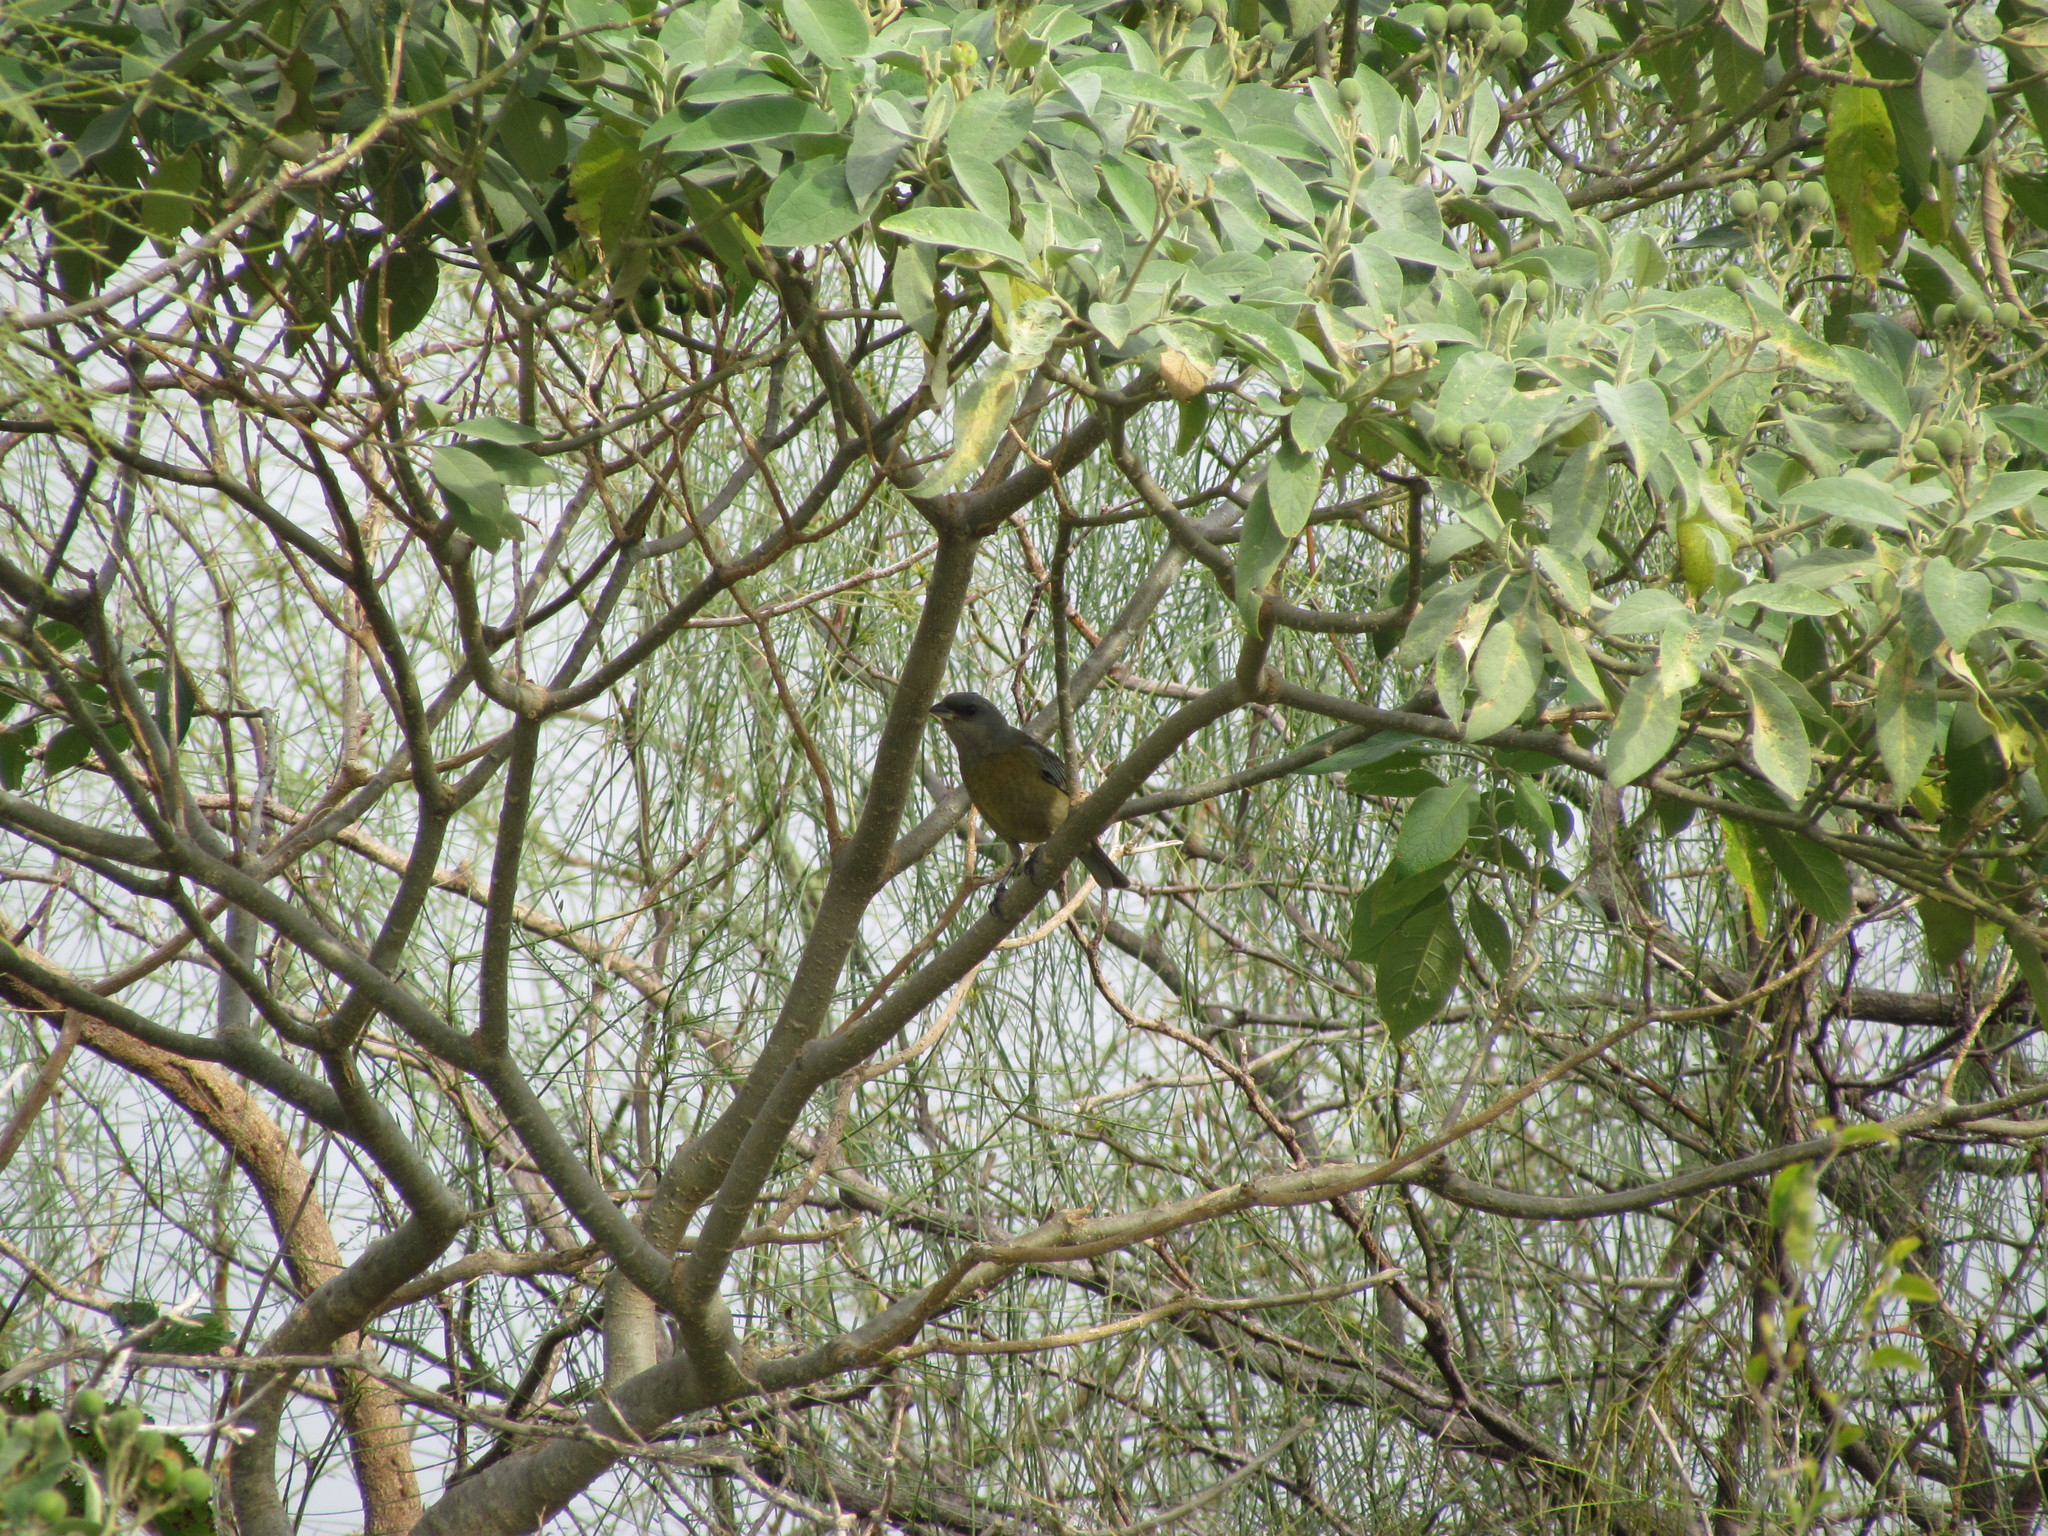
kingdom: Animalia
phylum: Chordata
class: Aves
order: Passeriformes
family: Thraupidae
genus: Rauenia
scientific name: Rauenia bonariensis
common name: Blue-and-yellow tanager
